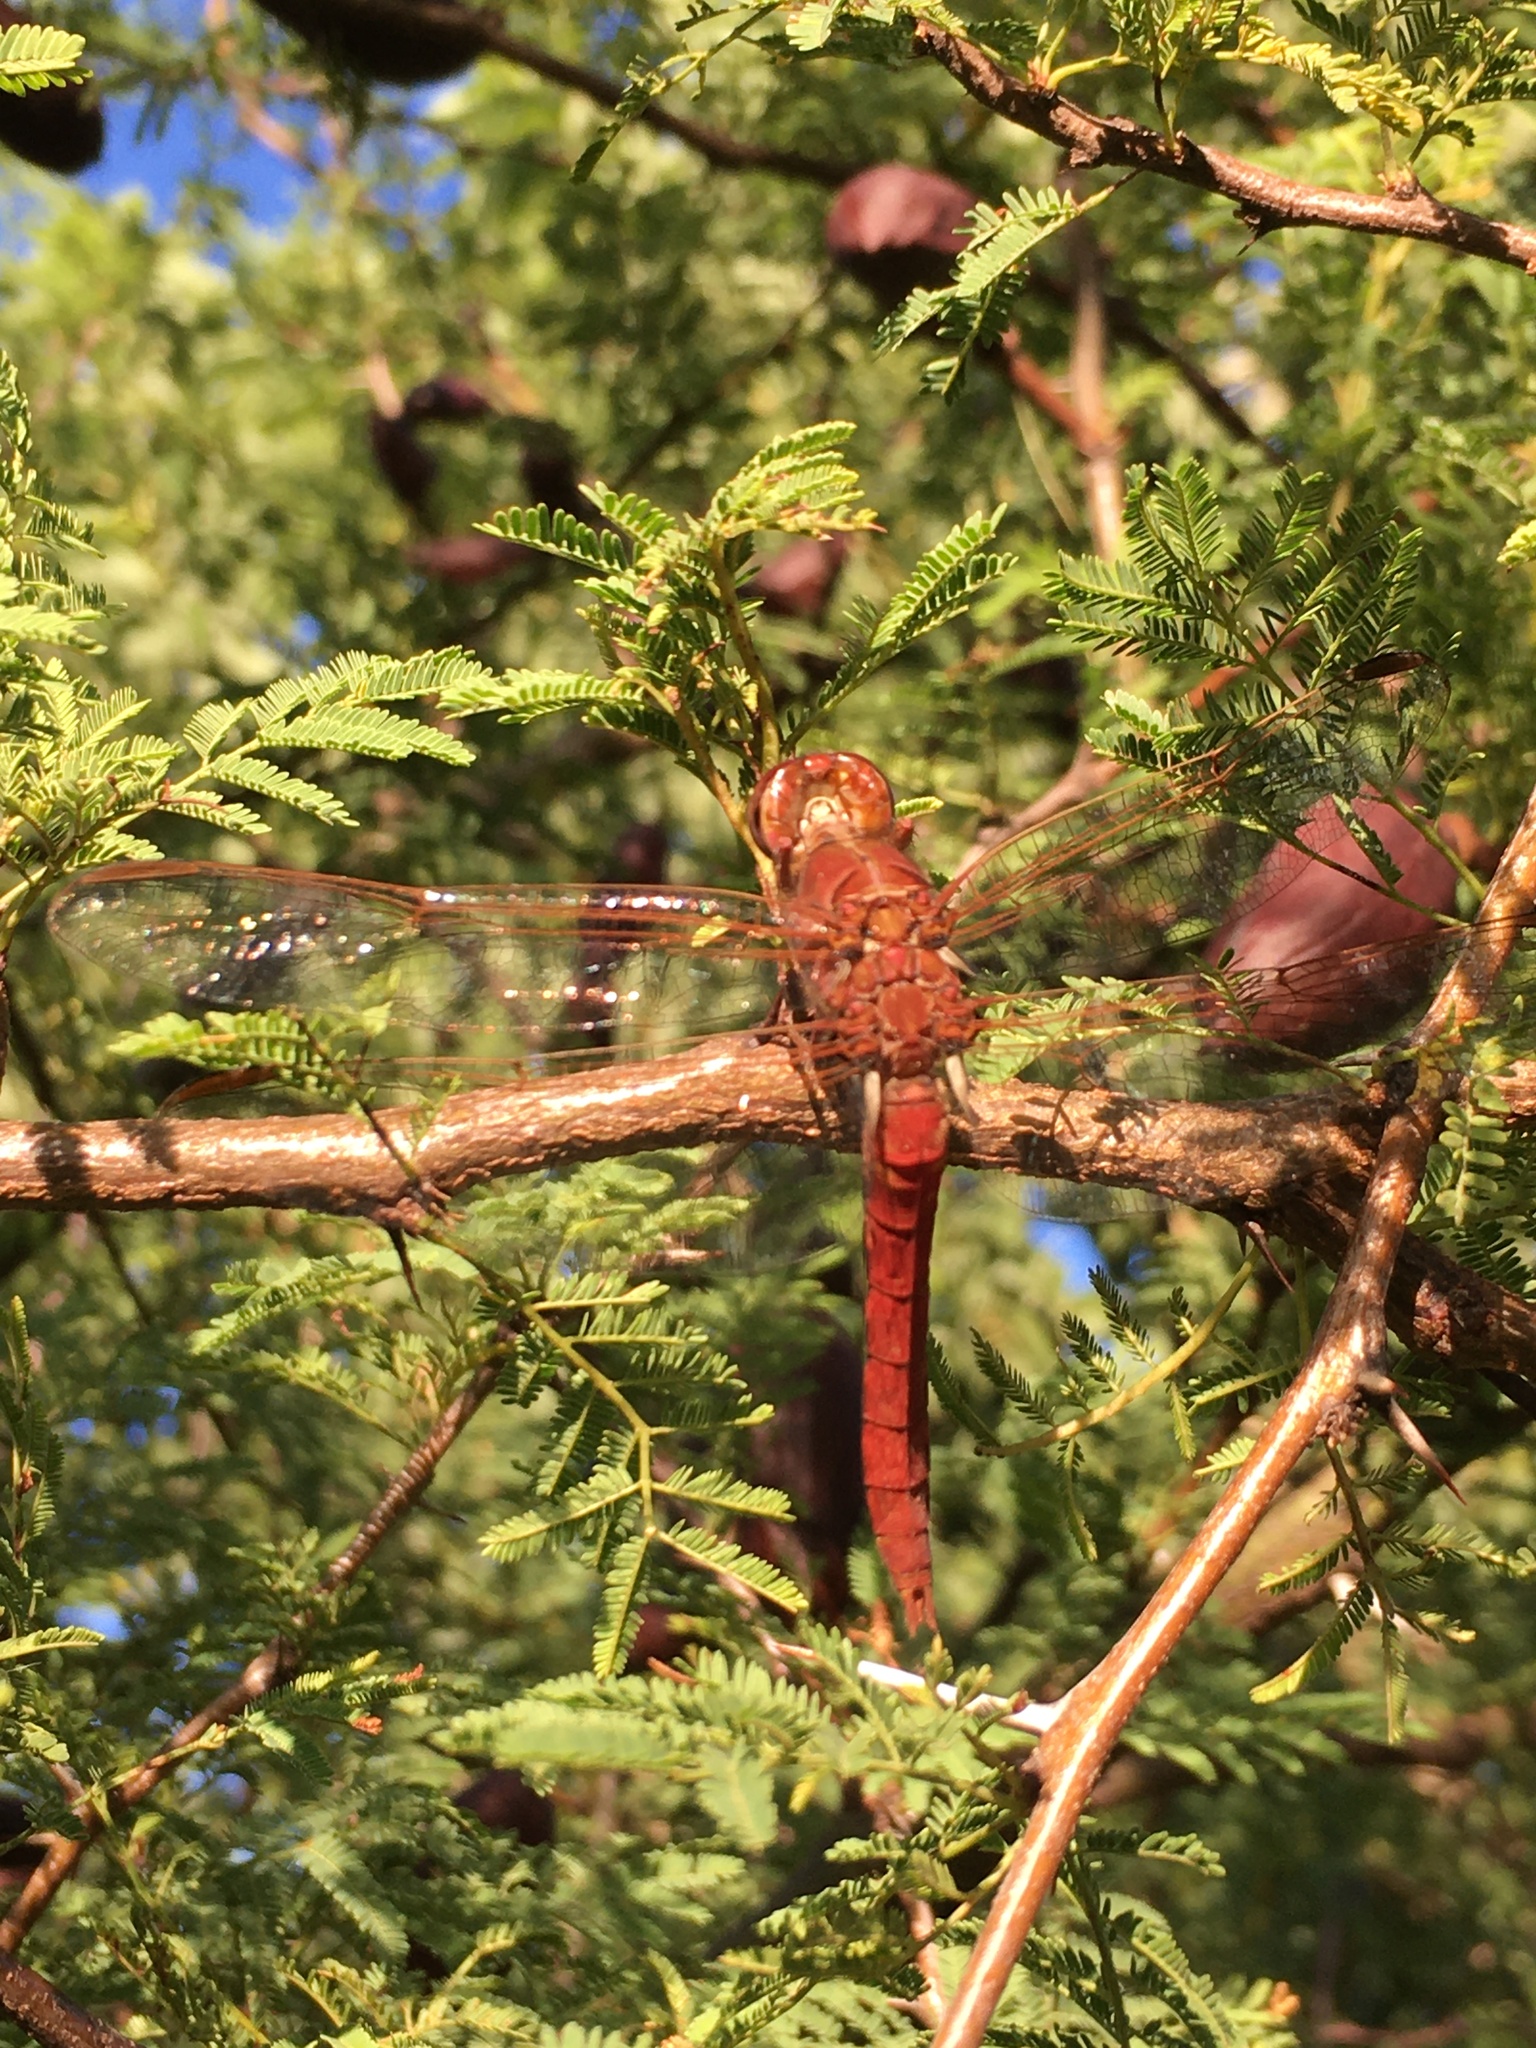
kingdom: Animalia
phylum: Arthropoda
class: Insecta
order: Odonata
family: Libellulidae
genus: Orthemis
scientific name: Orthemis nodiplaga
